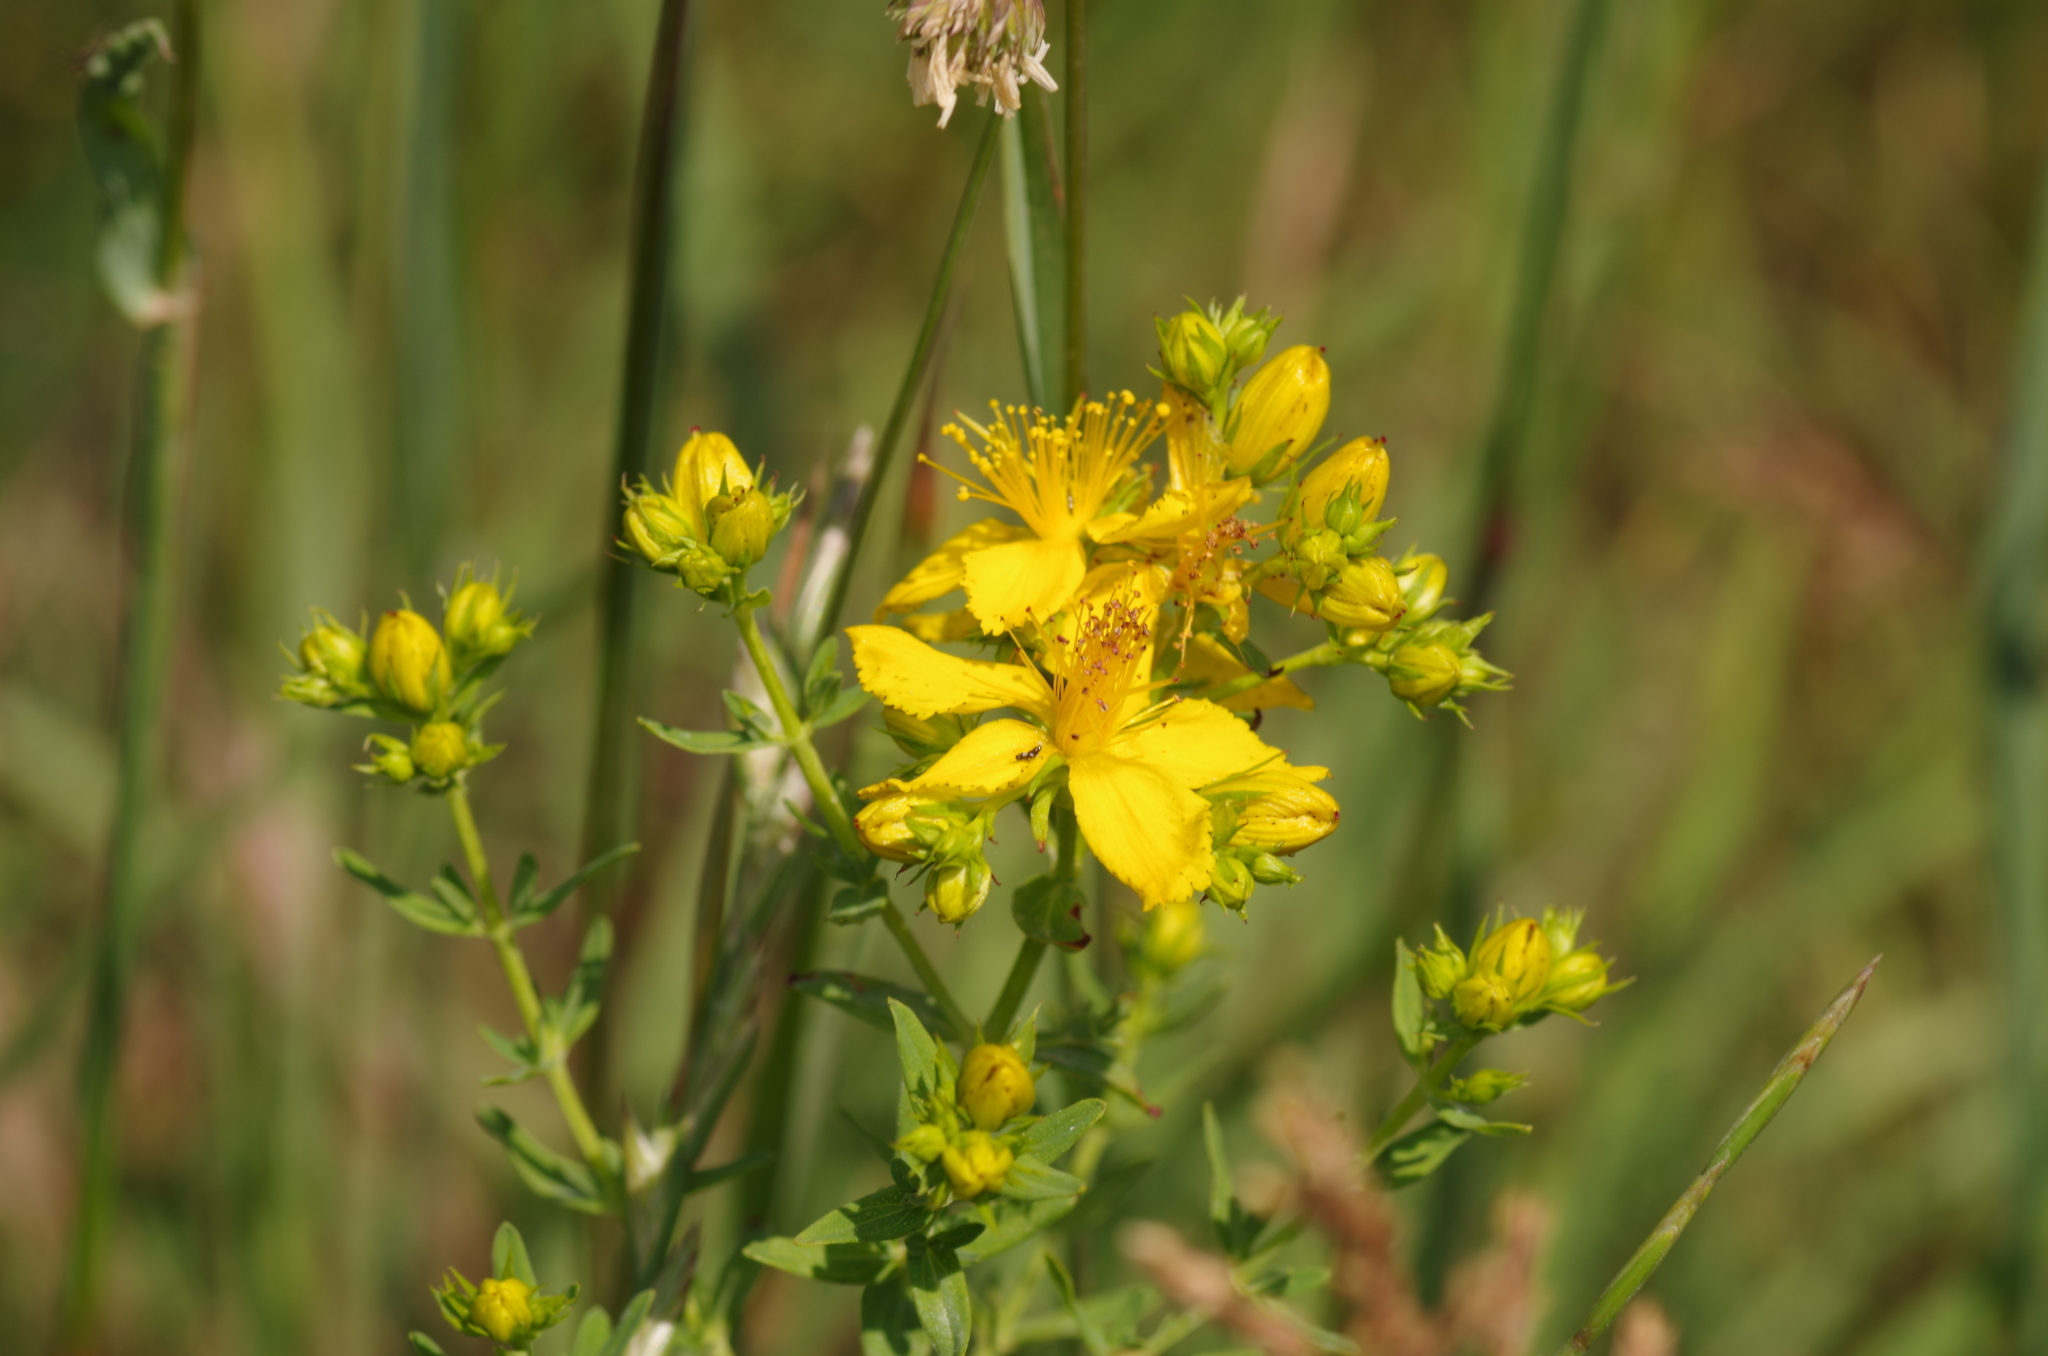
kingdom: Plantae
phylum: Tracheophyta
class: Magnoliopsida
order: Malpighiales
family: Hypericaceae
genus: Hypericum
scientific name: Hypericum perforatum
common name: Common st. johnswort
